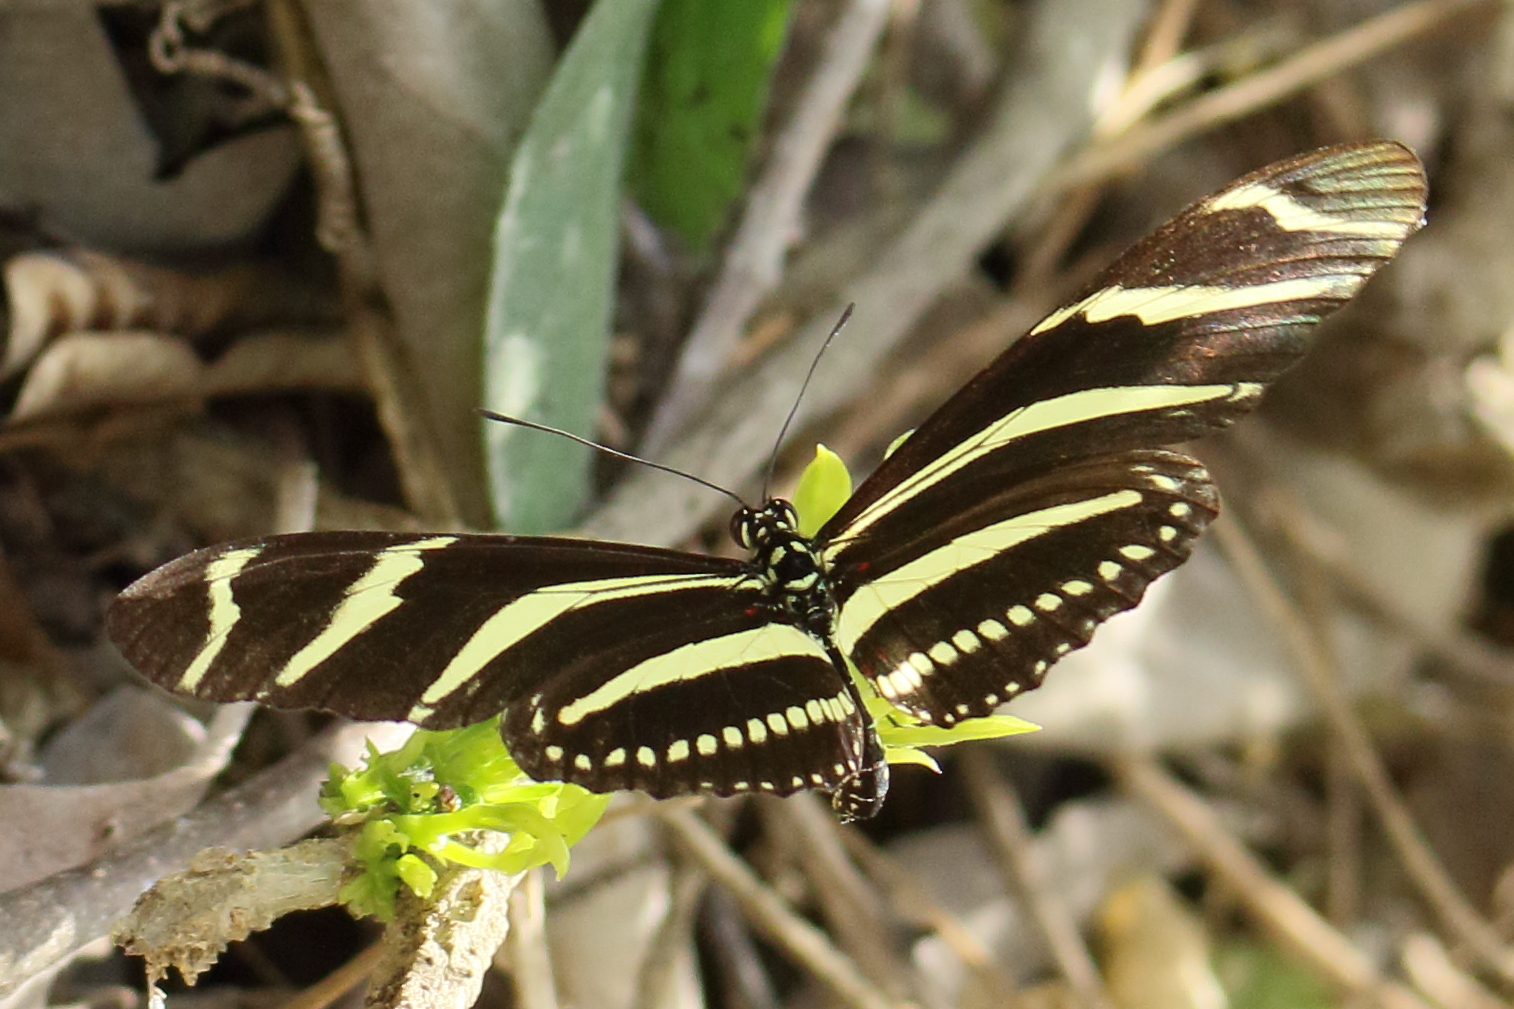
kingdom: Animalia
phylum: Arthropoda
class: Insecta
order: Lepidoptera
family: Nymphalidae
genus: Heliconius
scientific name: Heliconius charithonia
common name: Zebra long wing
